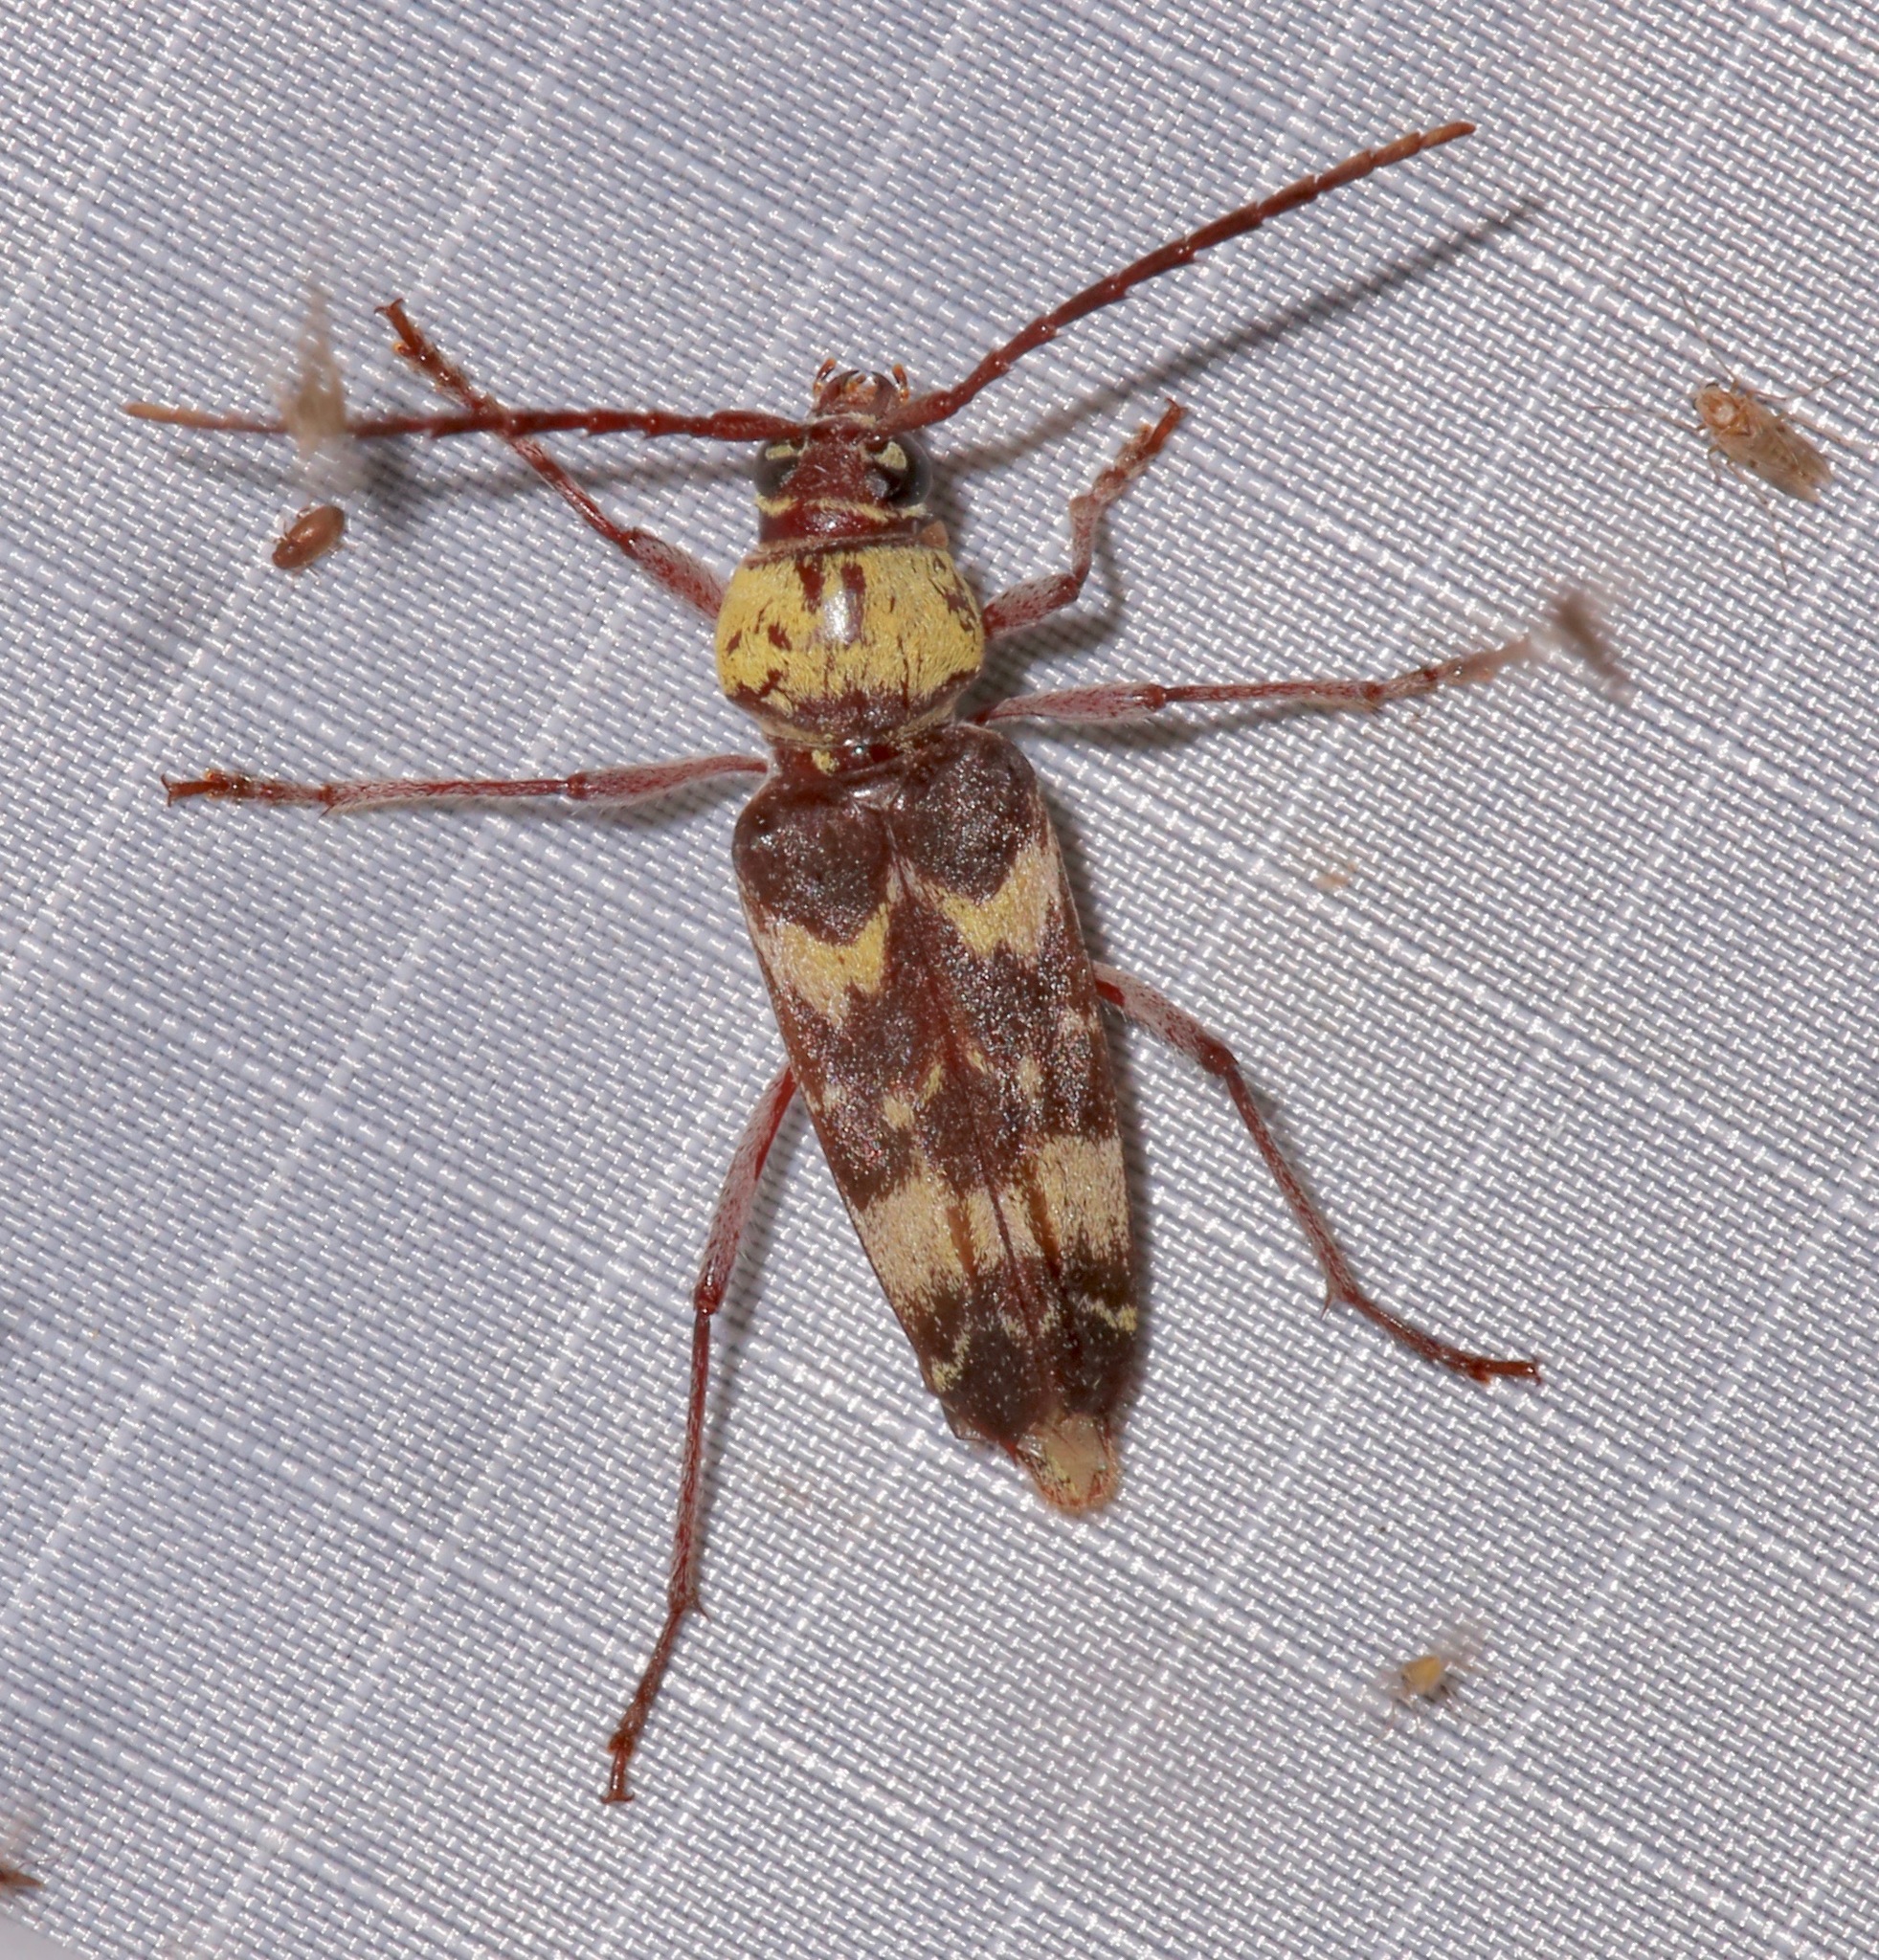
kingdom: Animalia
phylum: Arthropoda
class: Insecta
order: Coleoptera
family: Cerambycidae
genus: Megacyllene
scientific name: Megacyllene antennata
